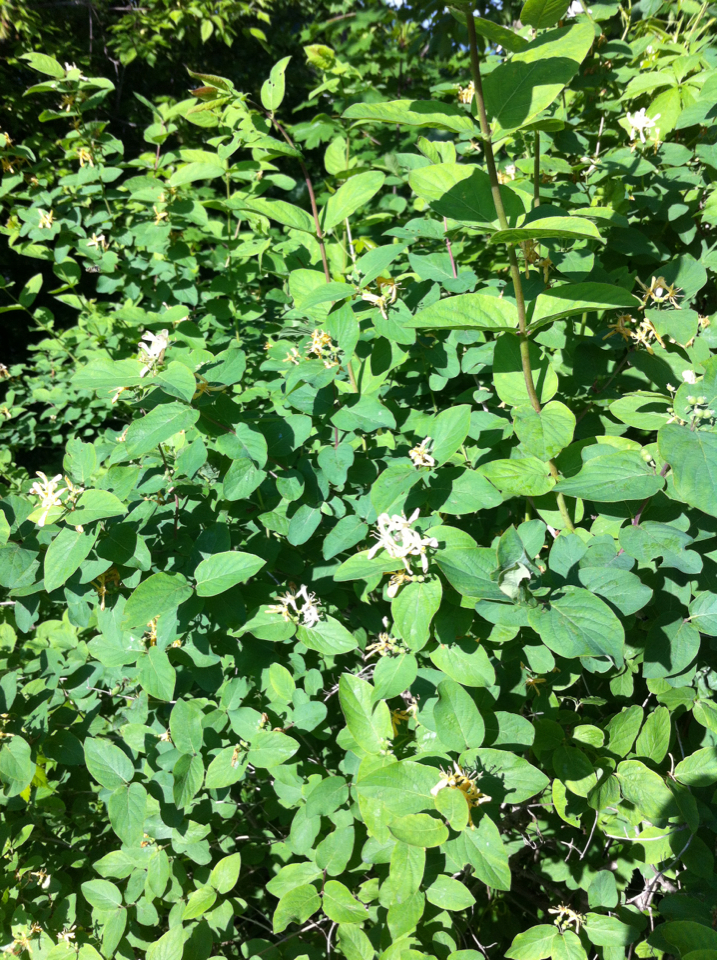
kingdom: Plantae
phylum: Tracheophyta
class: Magnoliopsida
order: Dipsacales
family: Caprifoliaceae
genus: Lonicera
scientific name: Lonicera morrowii
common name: Morrow's honeysuckle
